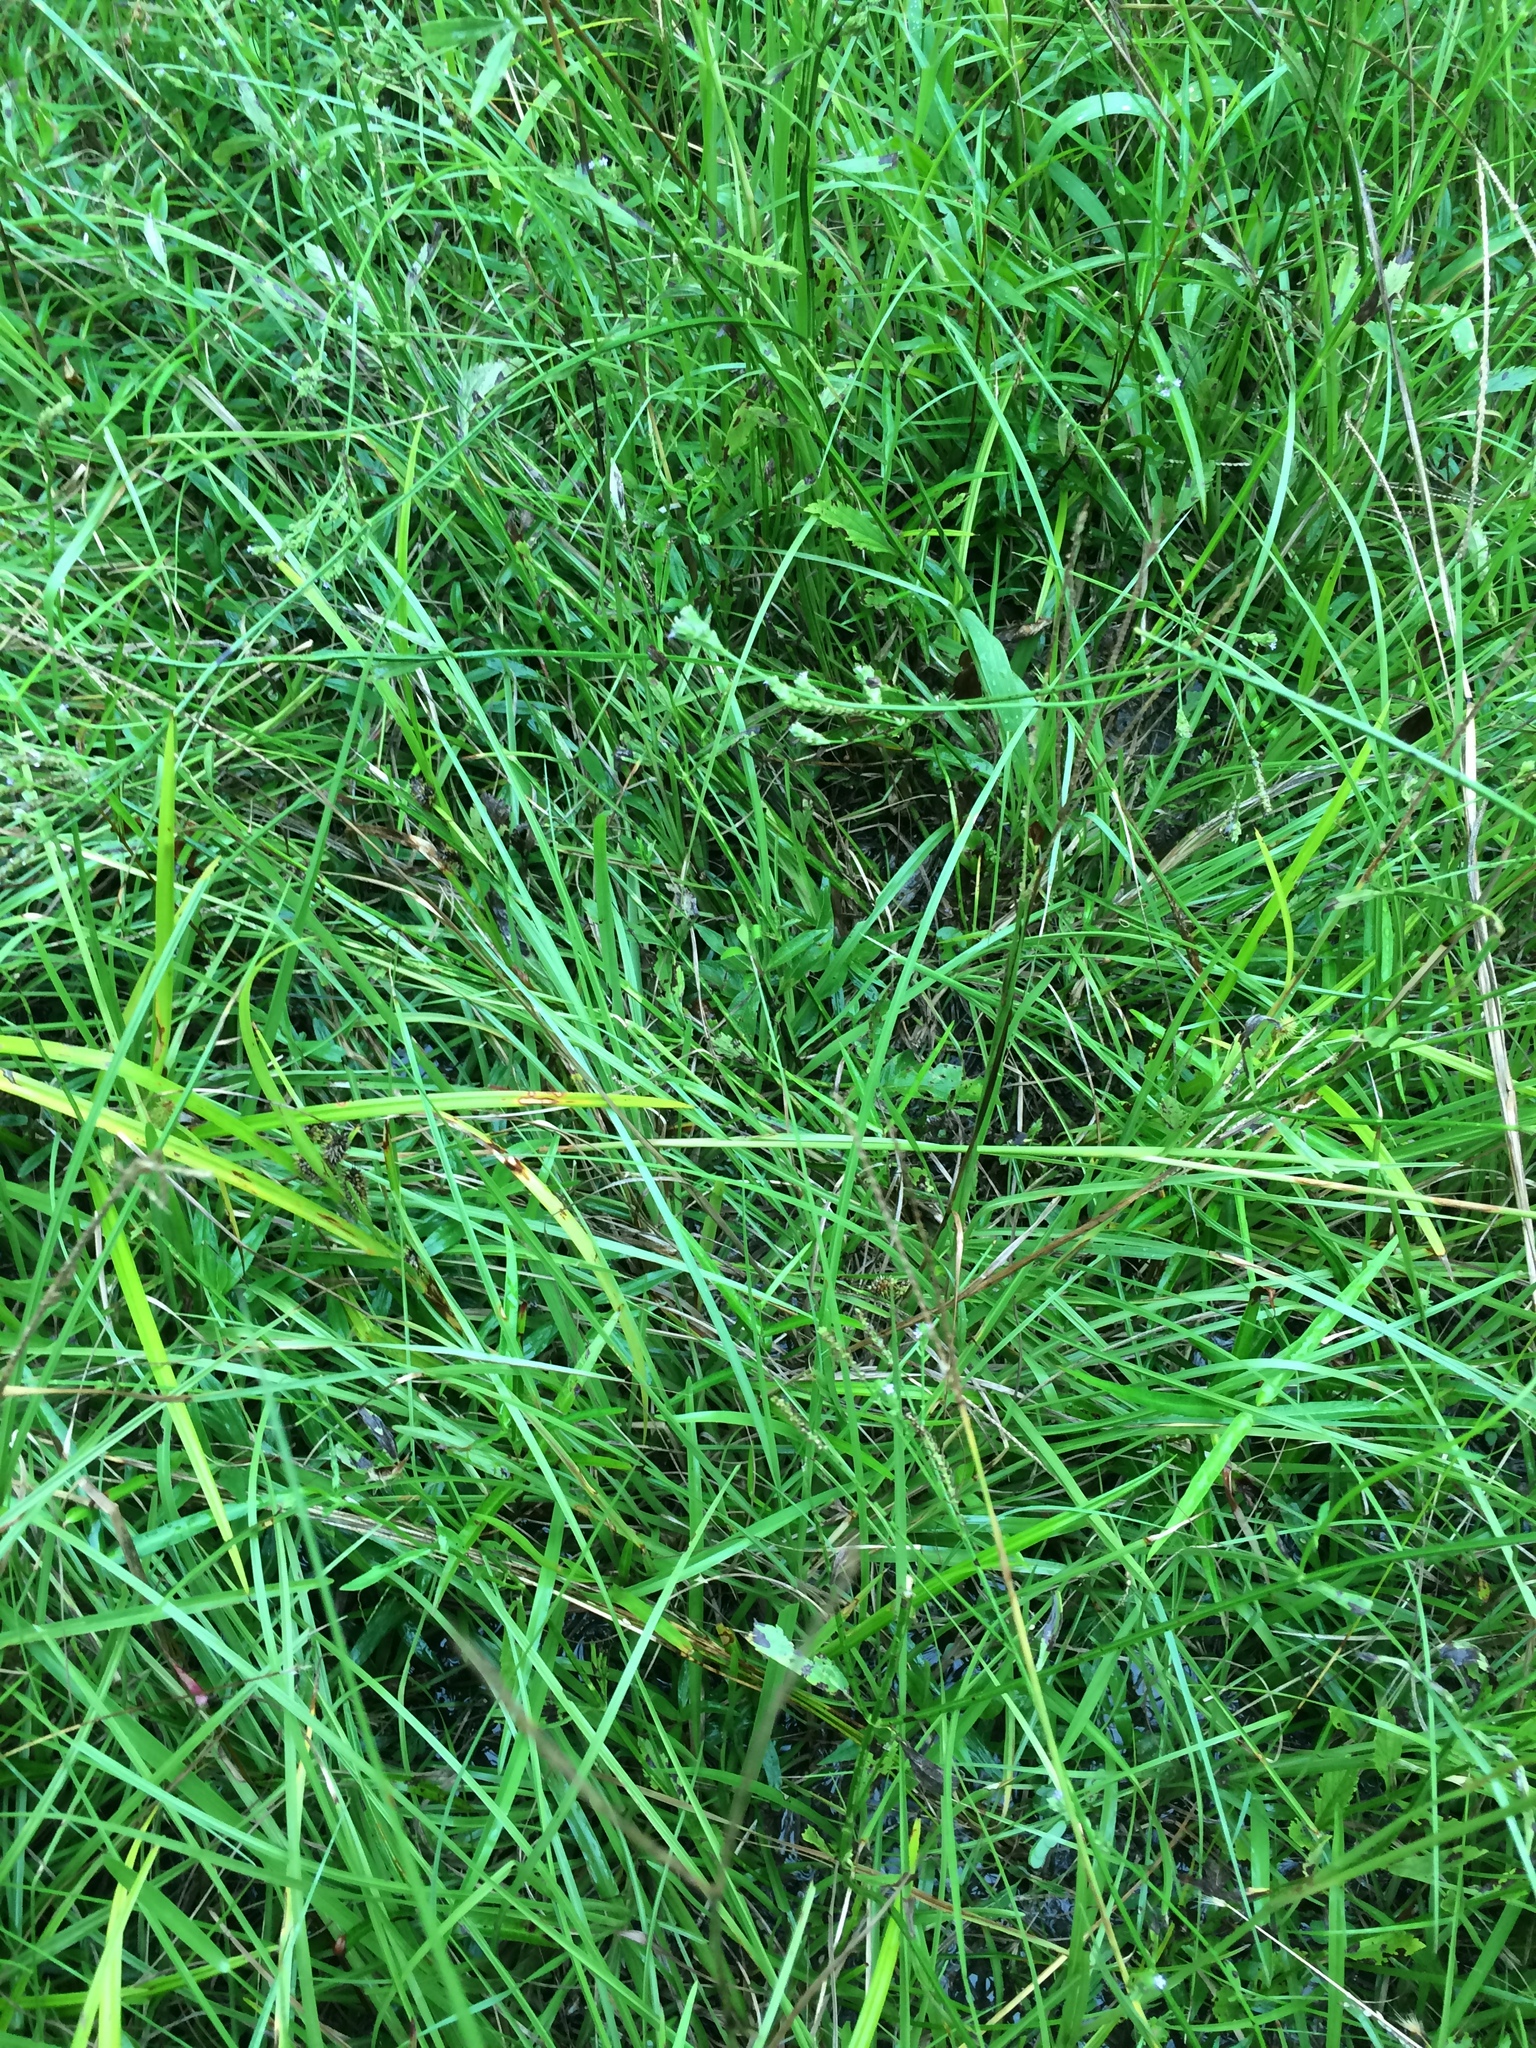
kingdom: Plantae
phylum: Tracheophyta
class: Liliopsida
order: Poales
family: Cyperaceae
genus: Carex
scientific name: Carex aureolensis
